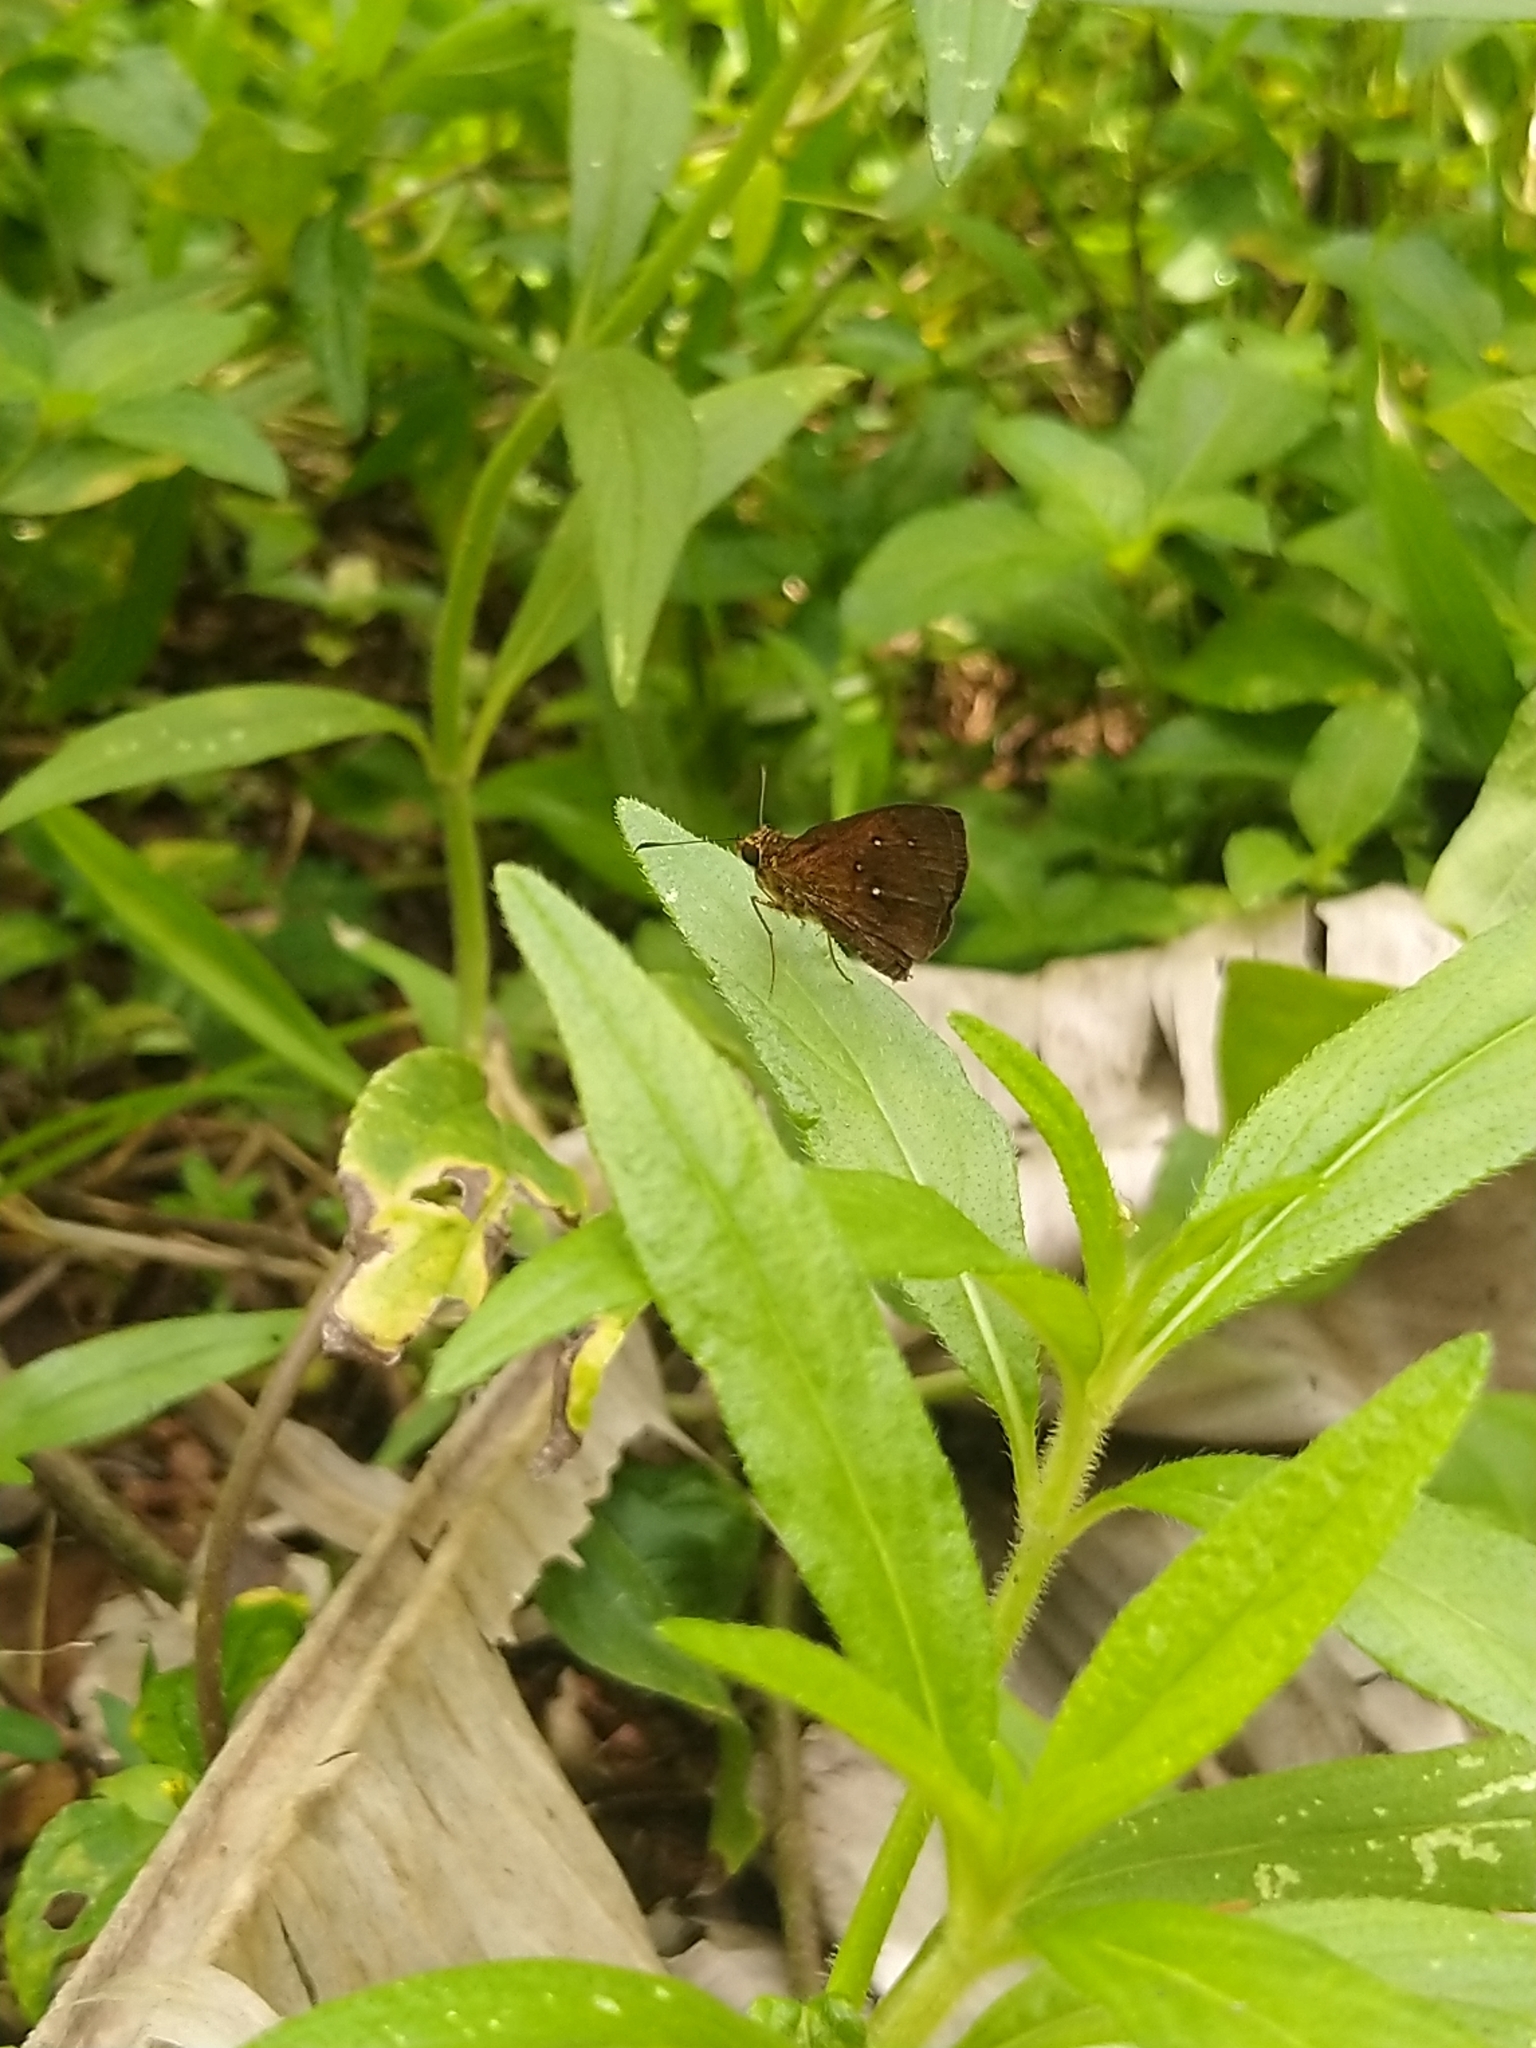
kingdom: Animalia
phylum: Arthropoda
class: Insecta
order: Lepidoptera
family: Hesperiidae
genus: Iambrix
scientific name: Iambrix salsala
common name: Chestnut bob
